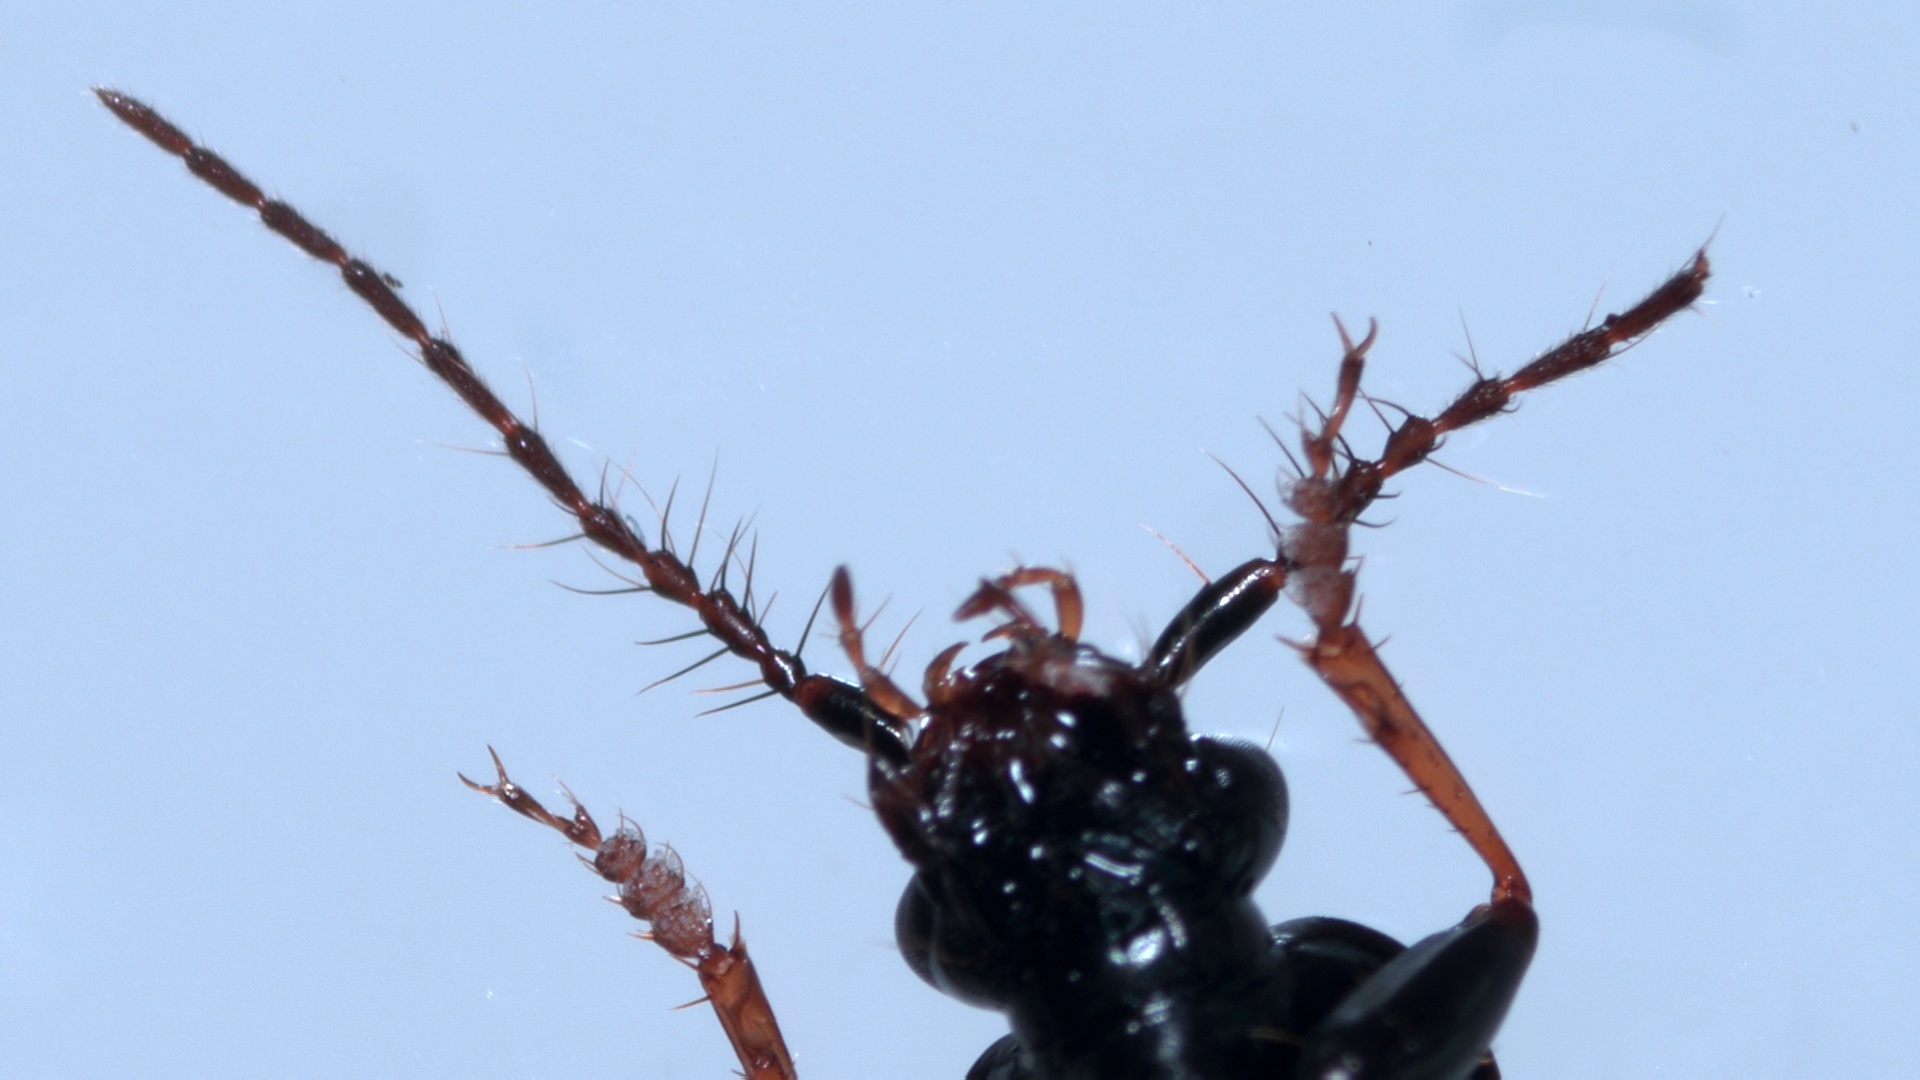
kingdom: Animalia
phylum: Arthropoda
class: Insecta
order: Coleoptera
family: Carabidae
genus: Loricera
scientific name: Loricera pilicornis
